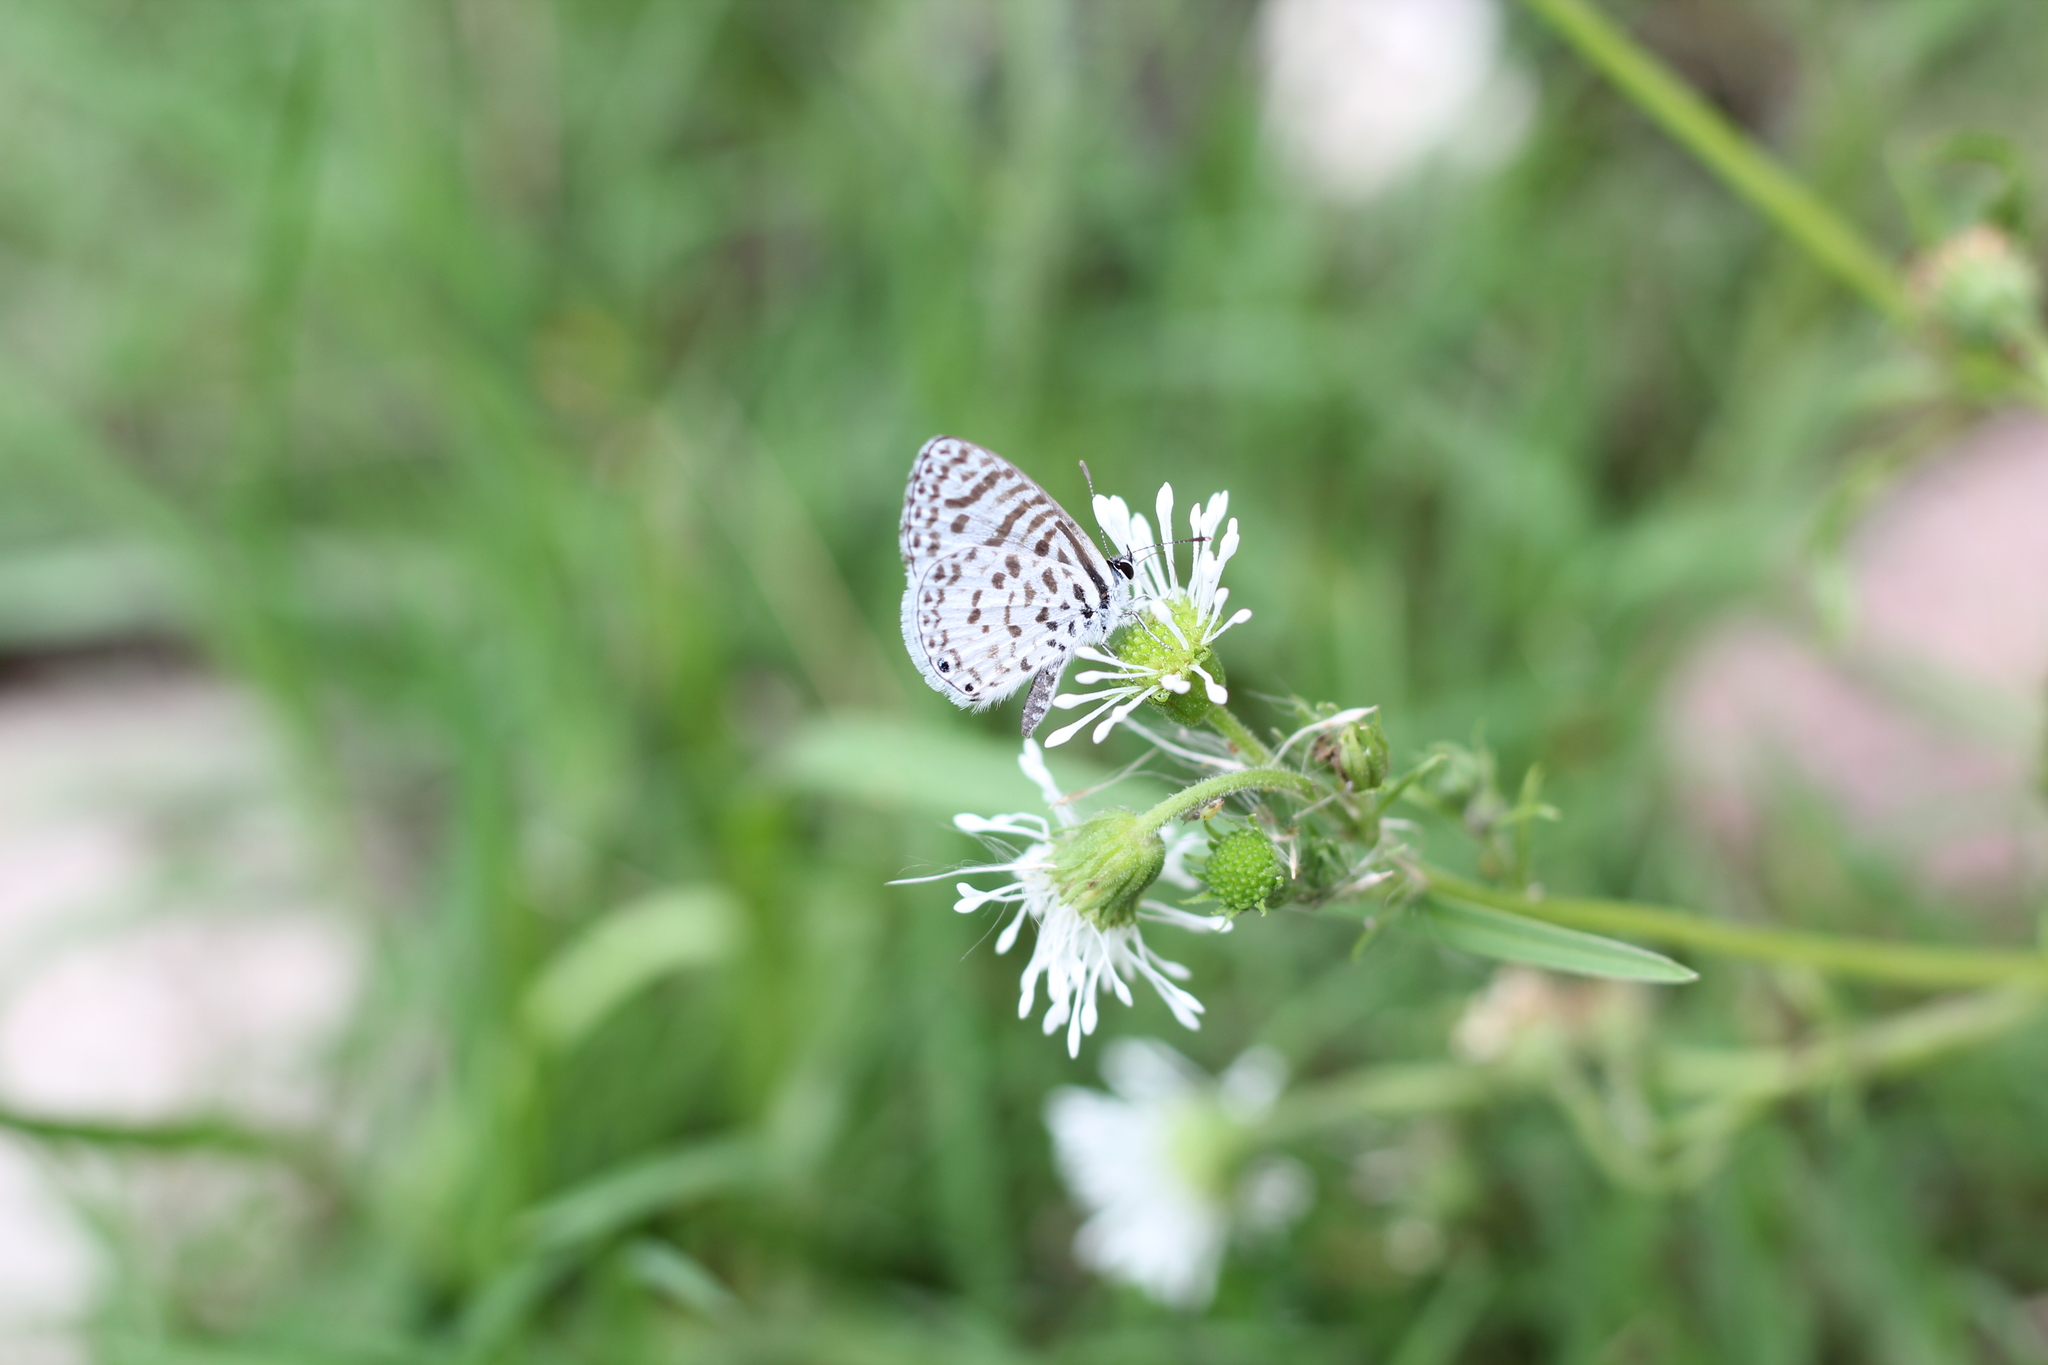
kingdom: Animalia
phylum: Arthropoda
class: Insecta
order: Lepidoptera
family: Lycaenidae
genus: Leptotes
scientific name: Leptotes cassius
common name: Cassius blue
